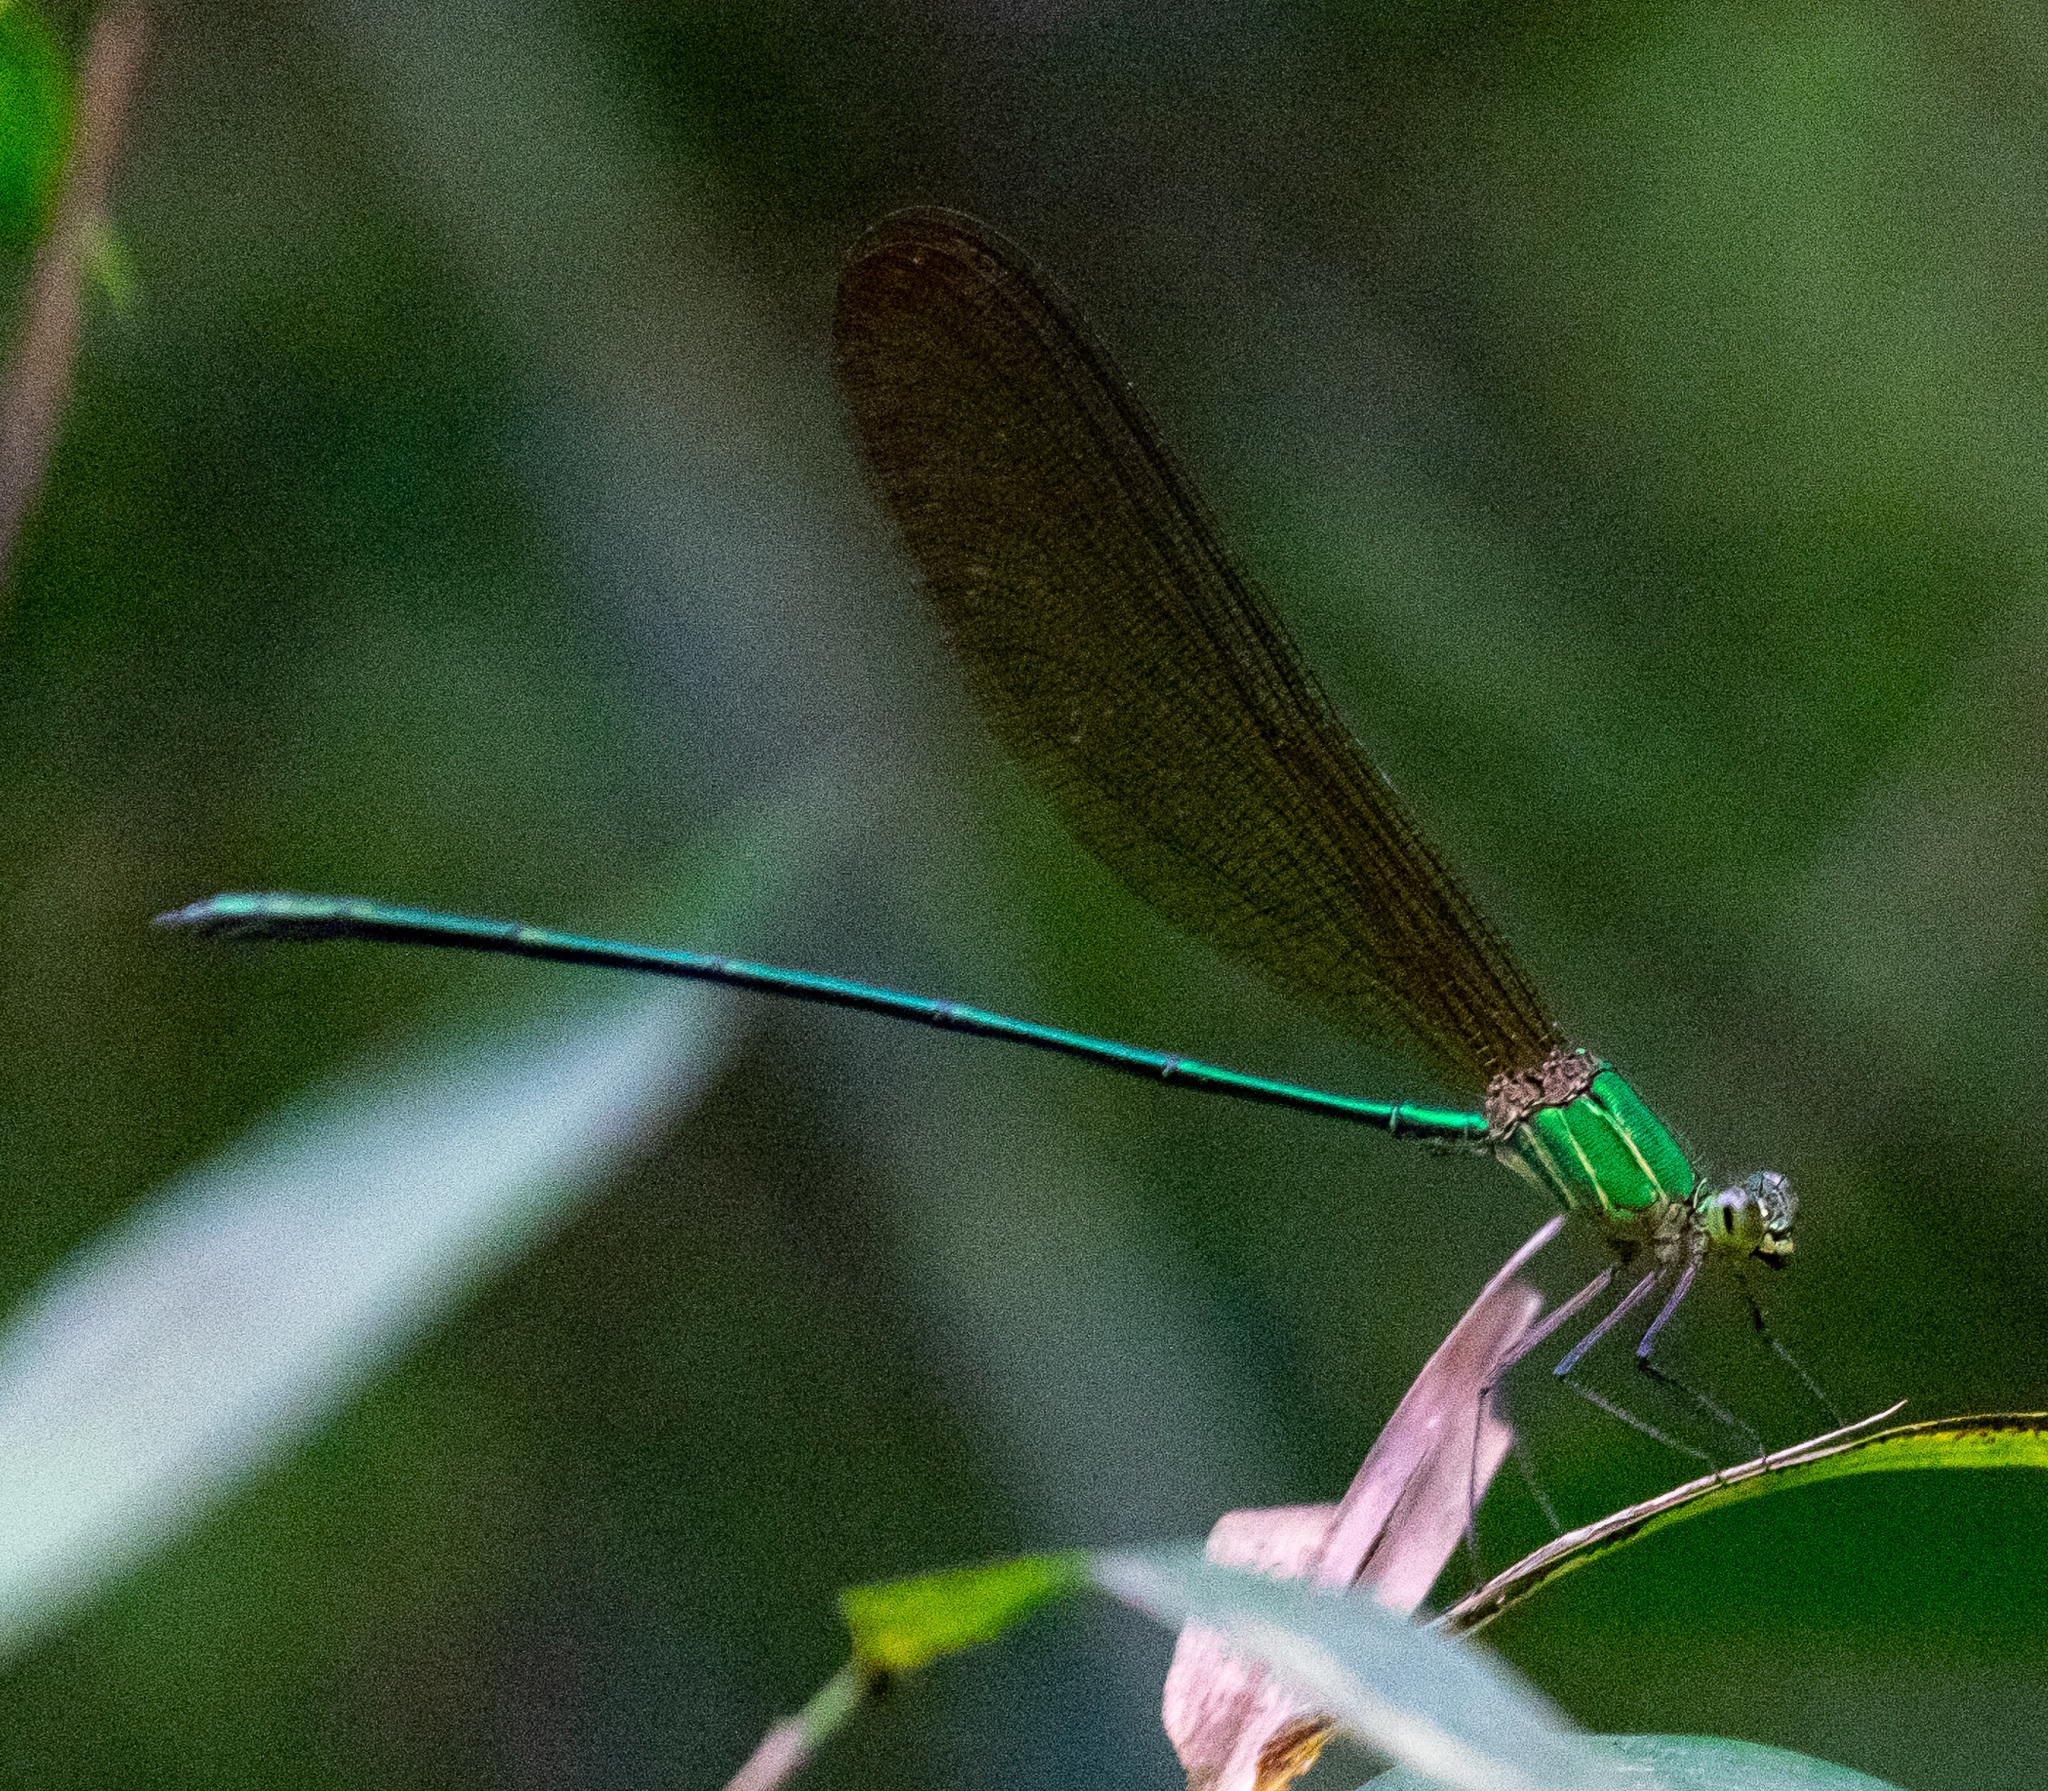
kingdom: Animalia
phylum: Arthropoda
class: Insecta
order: Odonata
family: Calopterygidae
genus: Vestalis
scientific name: Vestalis gracilis
